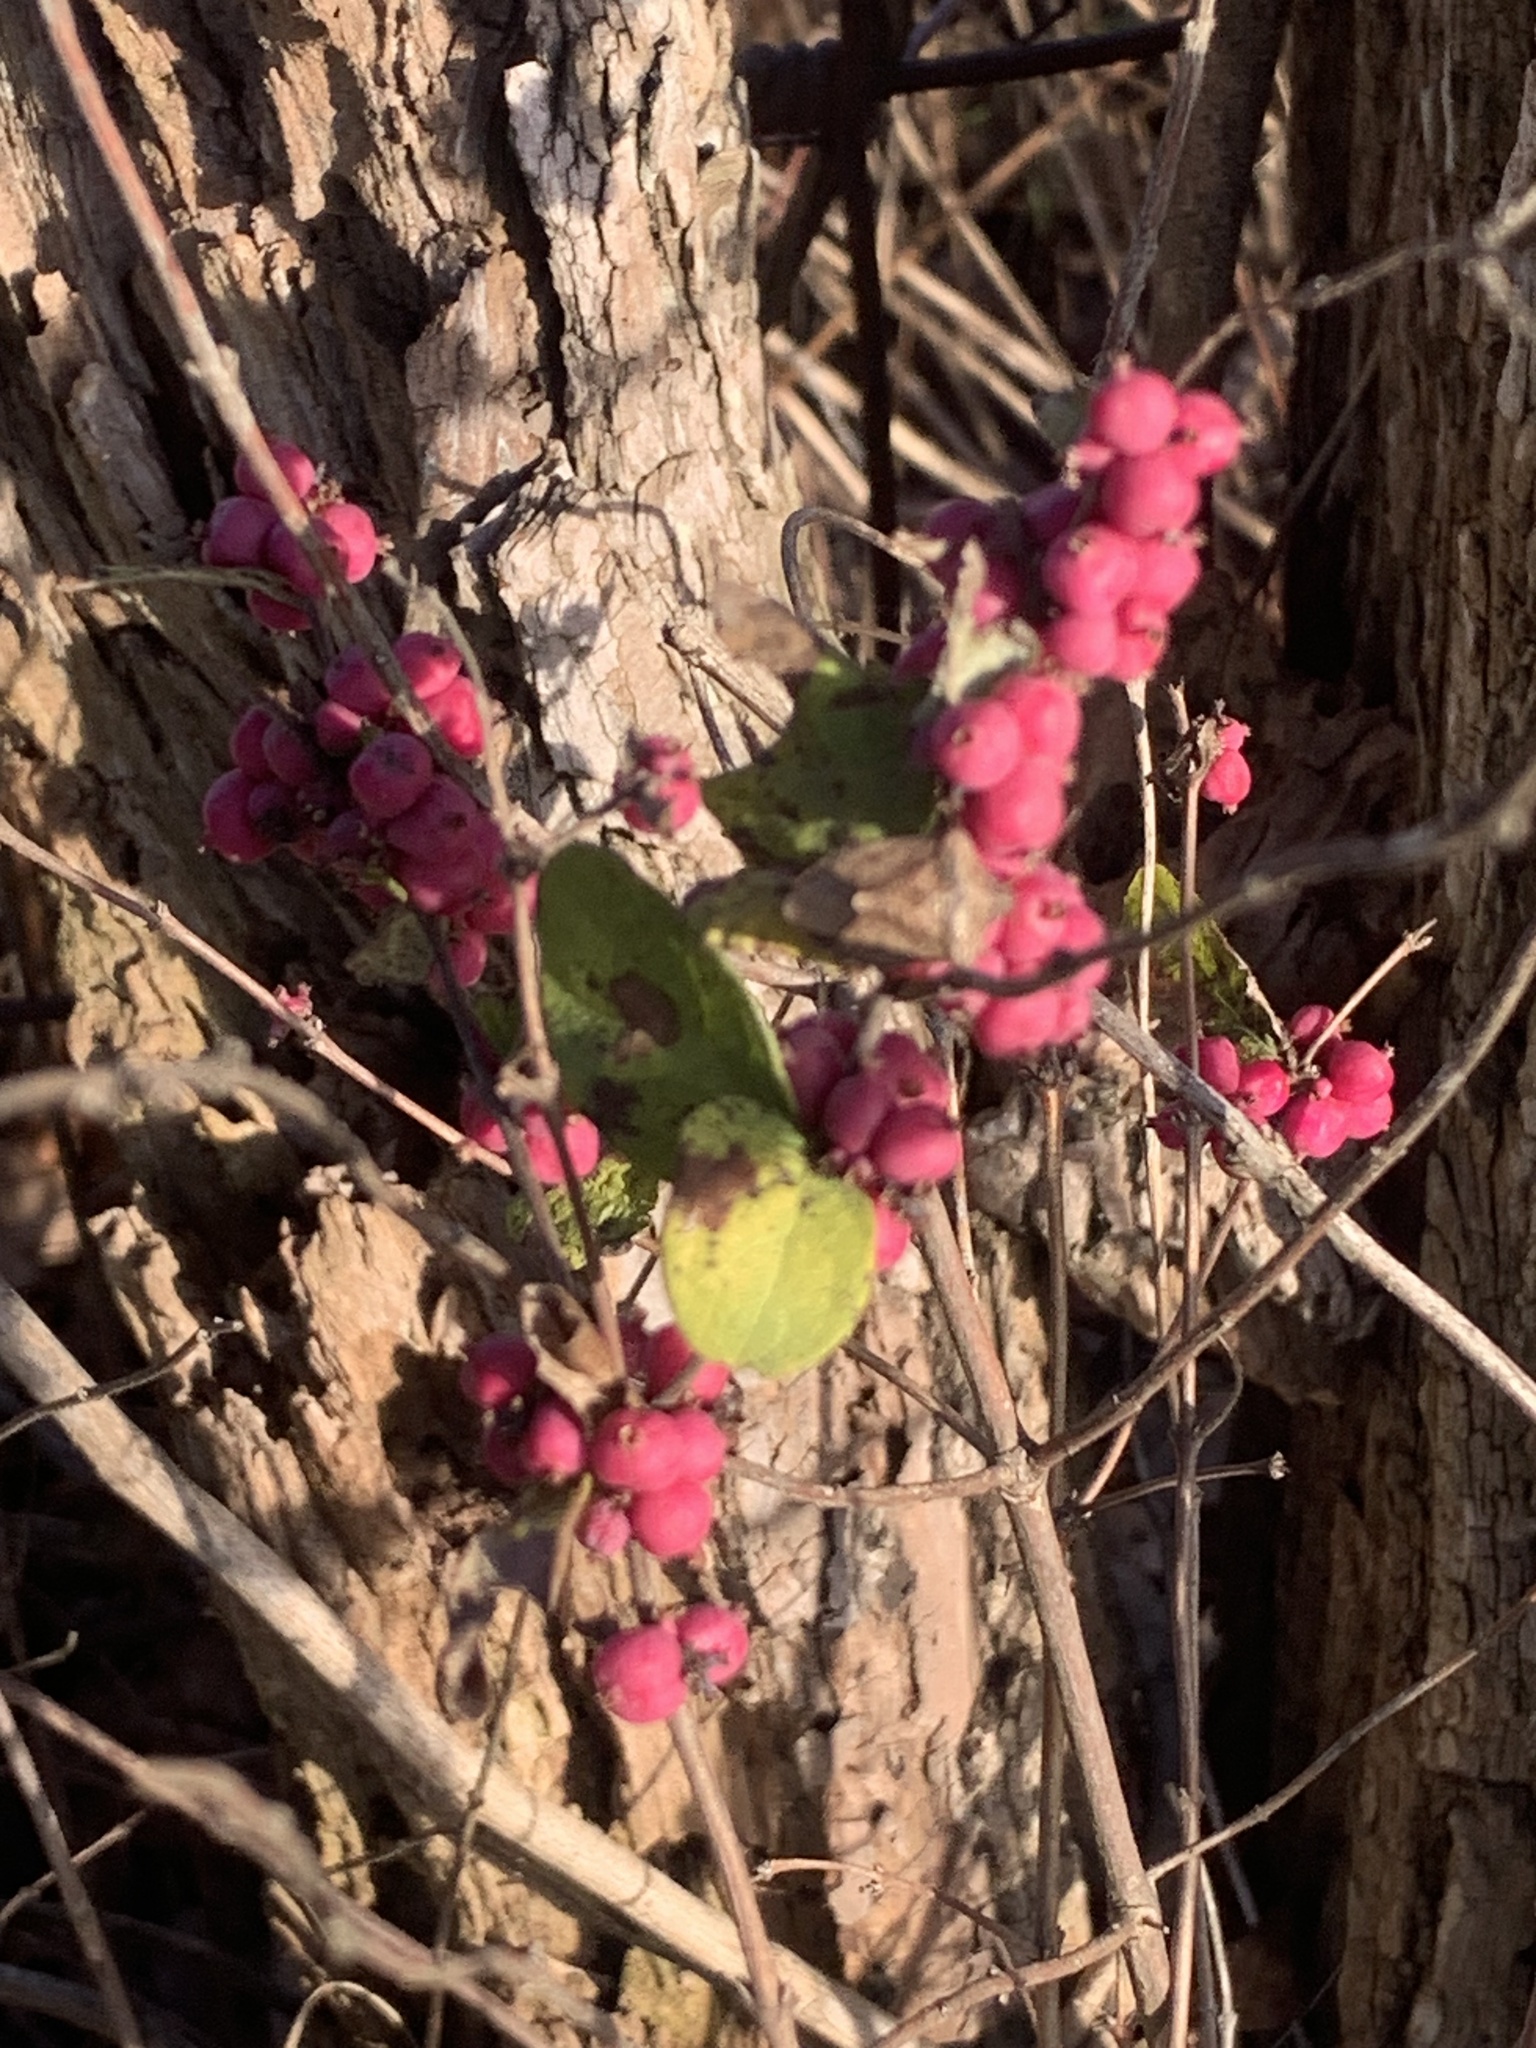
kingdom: Plantae
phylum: Tracheophyta
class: Magnoliopsida
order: Dipsacales
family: Caprifoliaceae
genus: Symphoricarpos
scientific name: Symphoricarpos orbiculatus
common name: Coralberry
